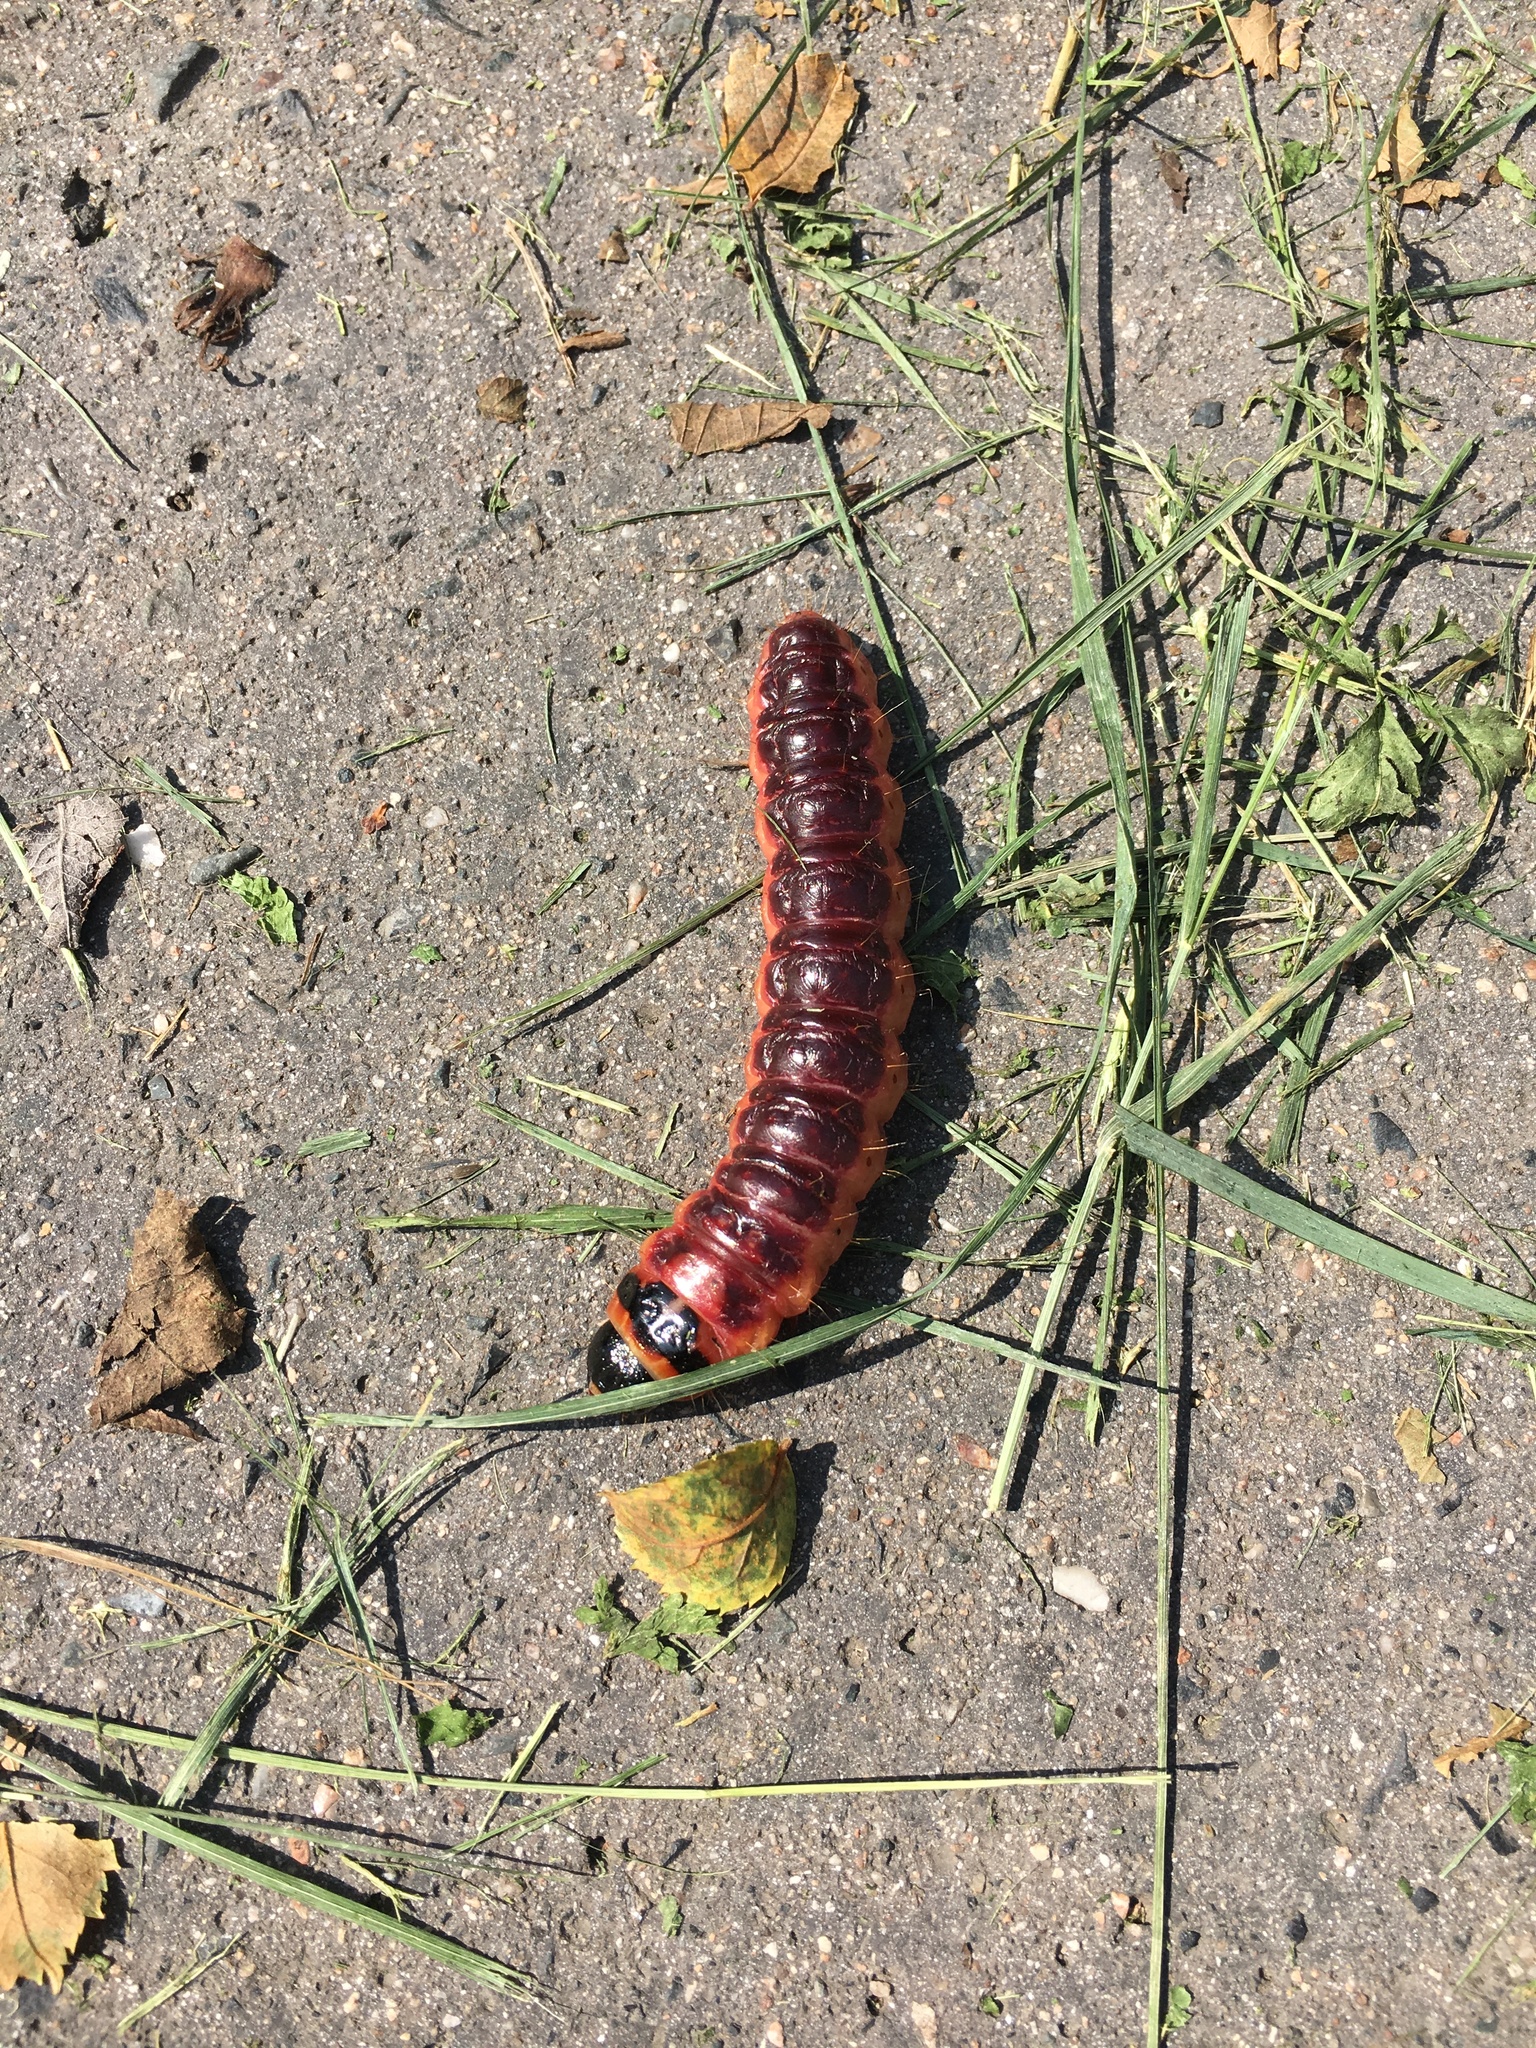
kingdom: Animalia
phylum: Arthropoda
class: Insecta
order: Lepidoptera
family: Cossidae
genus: Cossus
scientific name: Cossus cossus
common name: Goat moth
